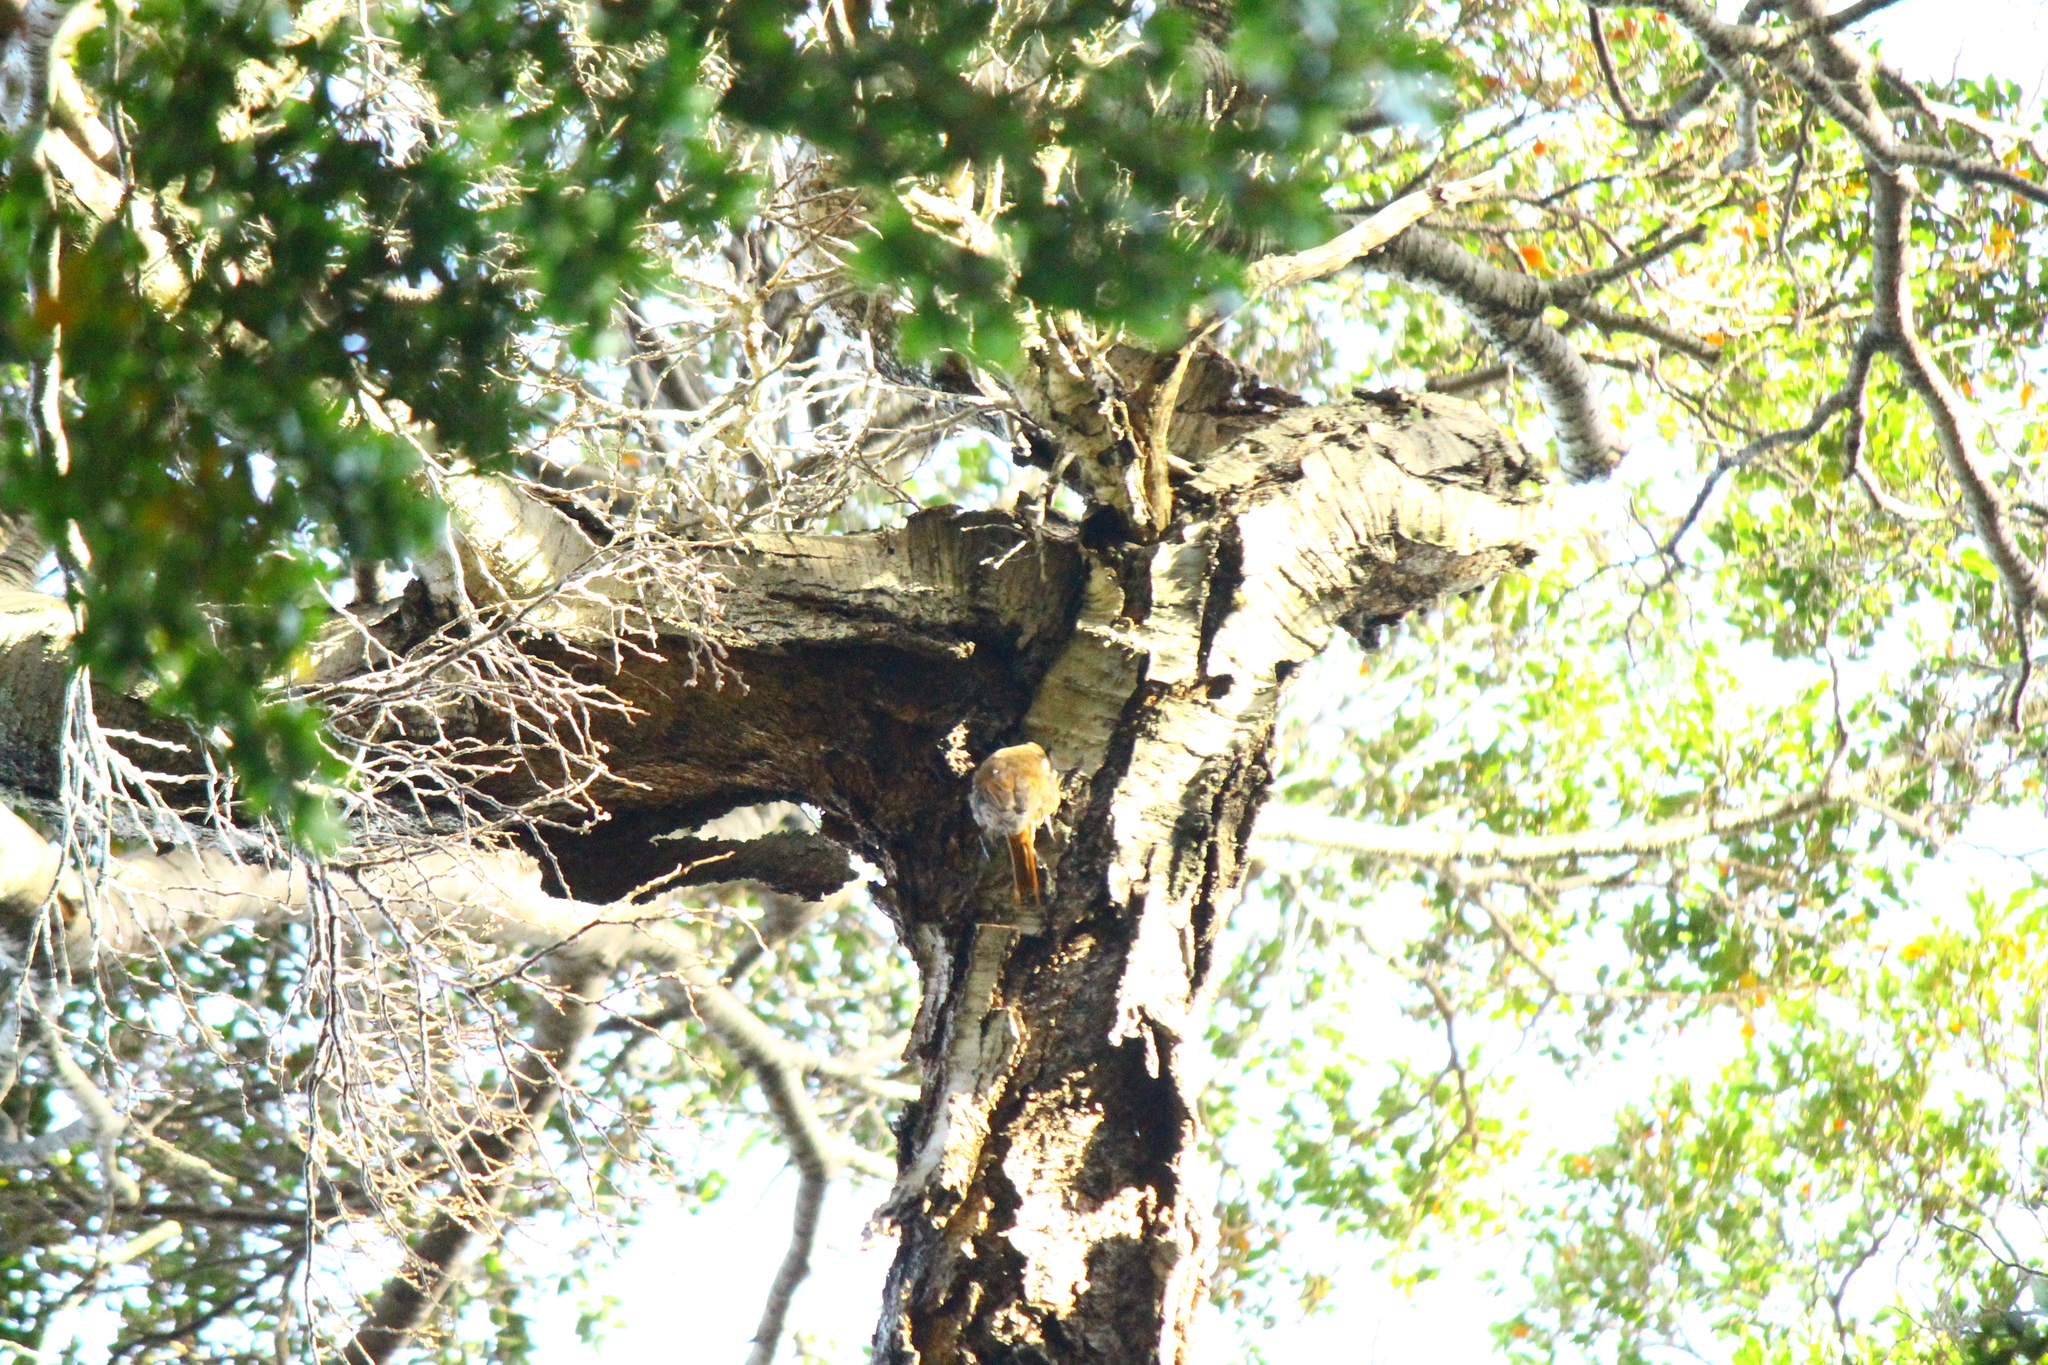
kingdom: Animalia
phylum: Chordata
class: Aves
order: Passeriformes
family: Furnariidae
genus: Pygarrhichas
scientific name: Pygarrhichas albogularis
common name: White-throated treerunner
